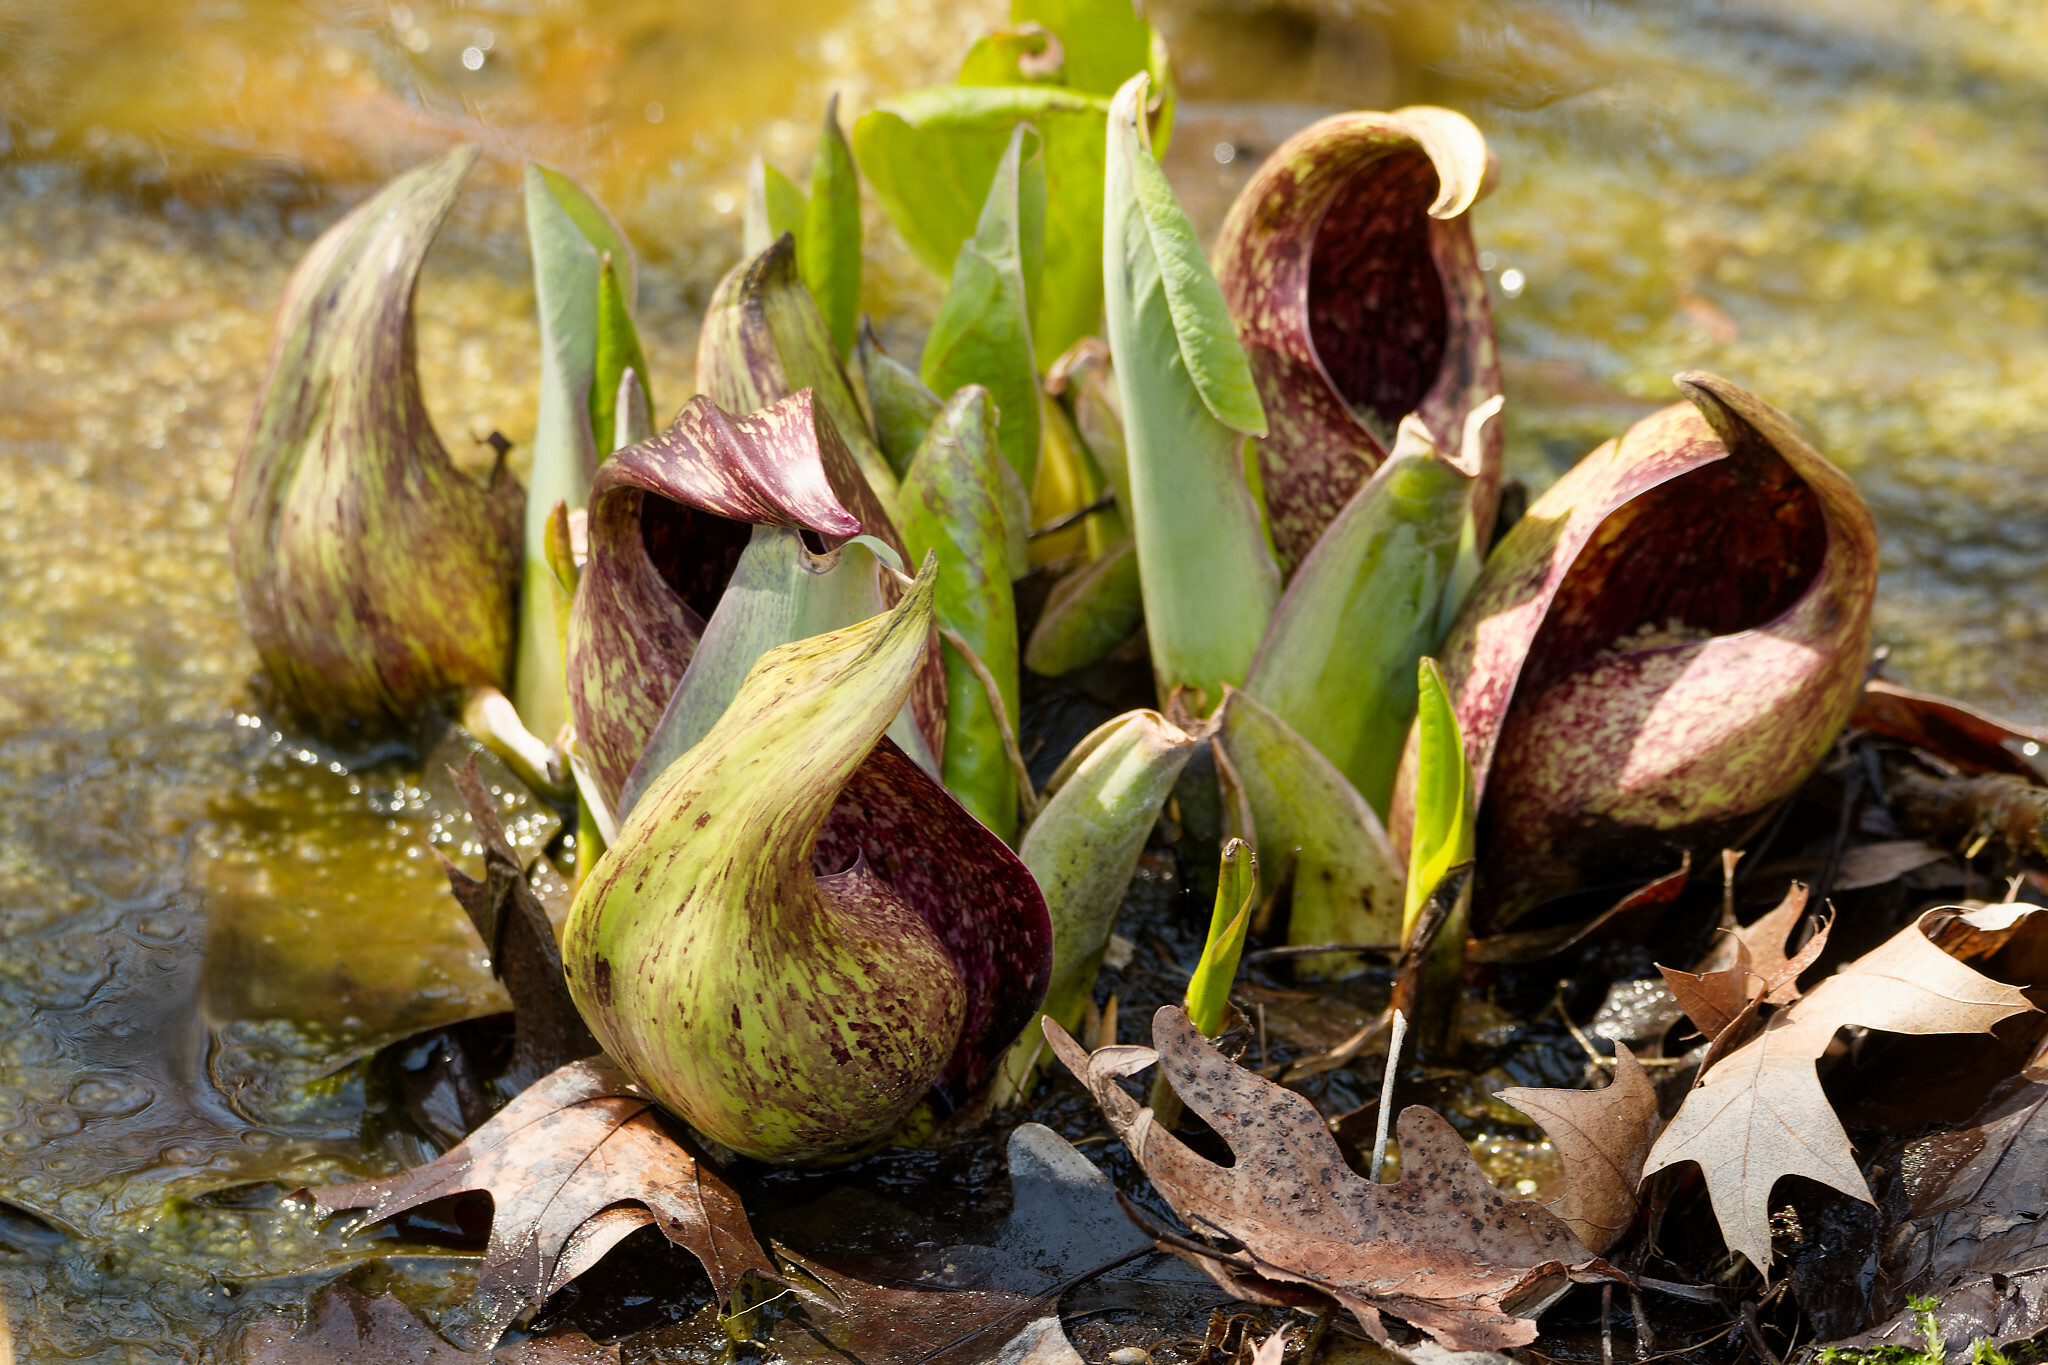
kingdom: Plantae
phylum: Tracheophyta
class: Liliopsida
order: Alismatales
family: Araceae
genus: Symplocarpus
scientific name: Symplocarpus foetidus
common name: Eastern skunk cabbage
